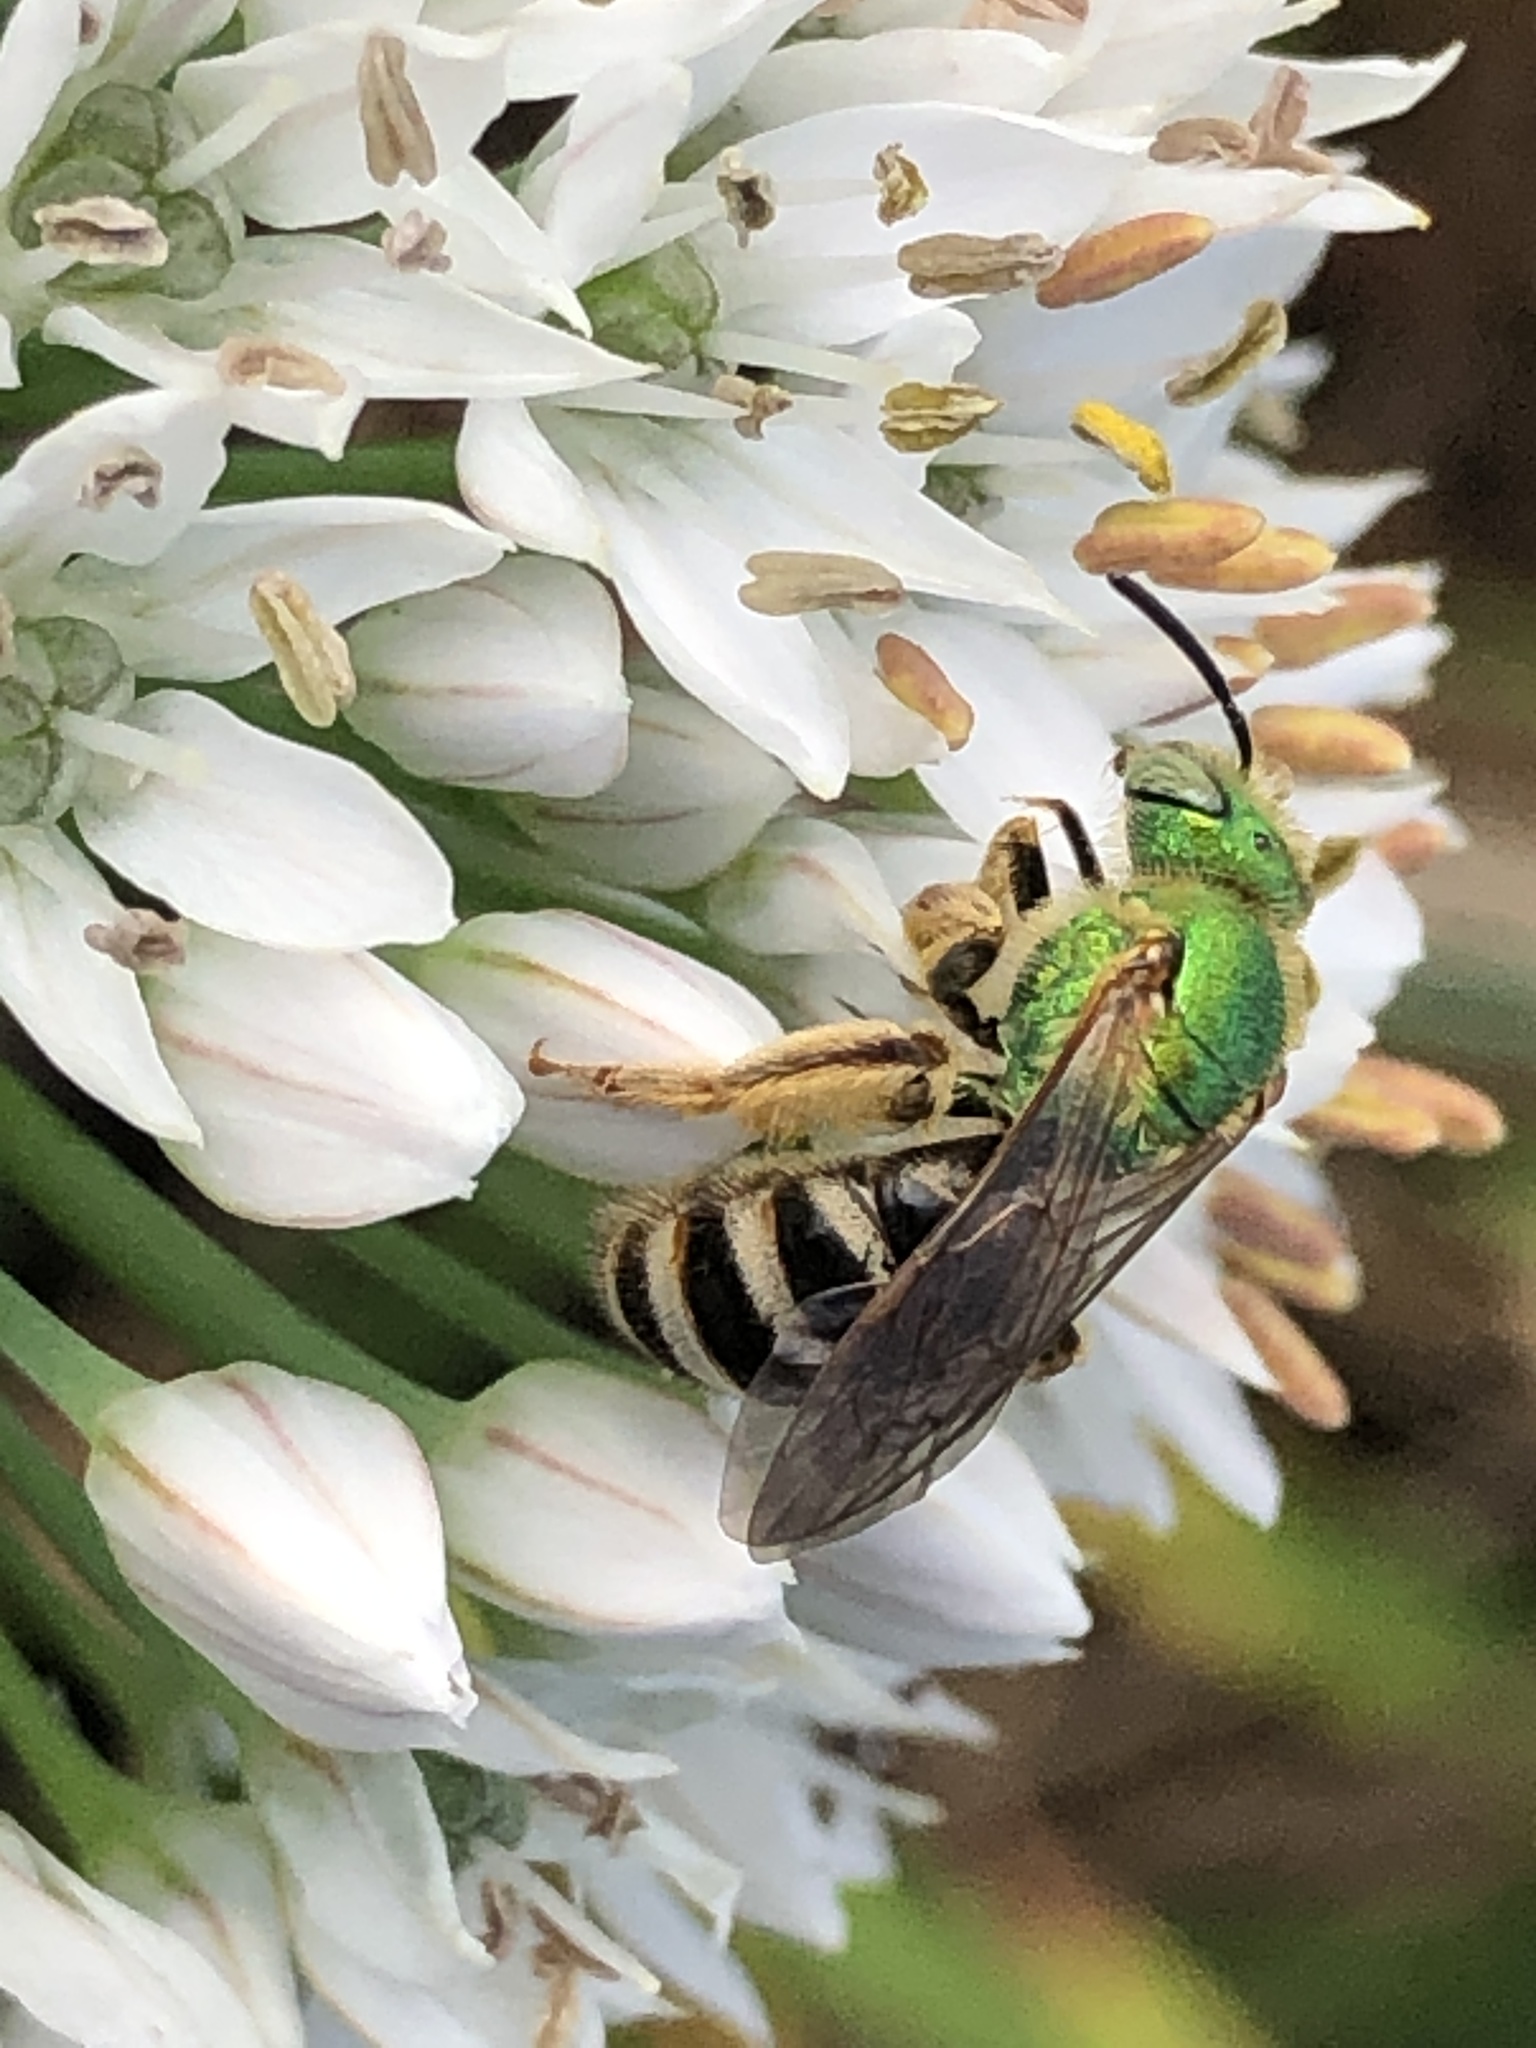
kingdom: Animalia
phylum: Arthropoda
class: Insecta
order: Hymenoptera
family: Halictidae
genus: Agapostemon
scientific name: Agapostemon virescens
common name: Bicolored striped sweat bee
